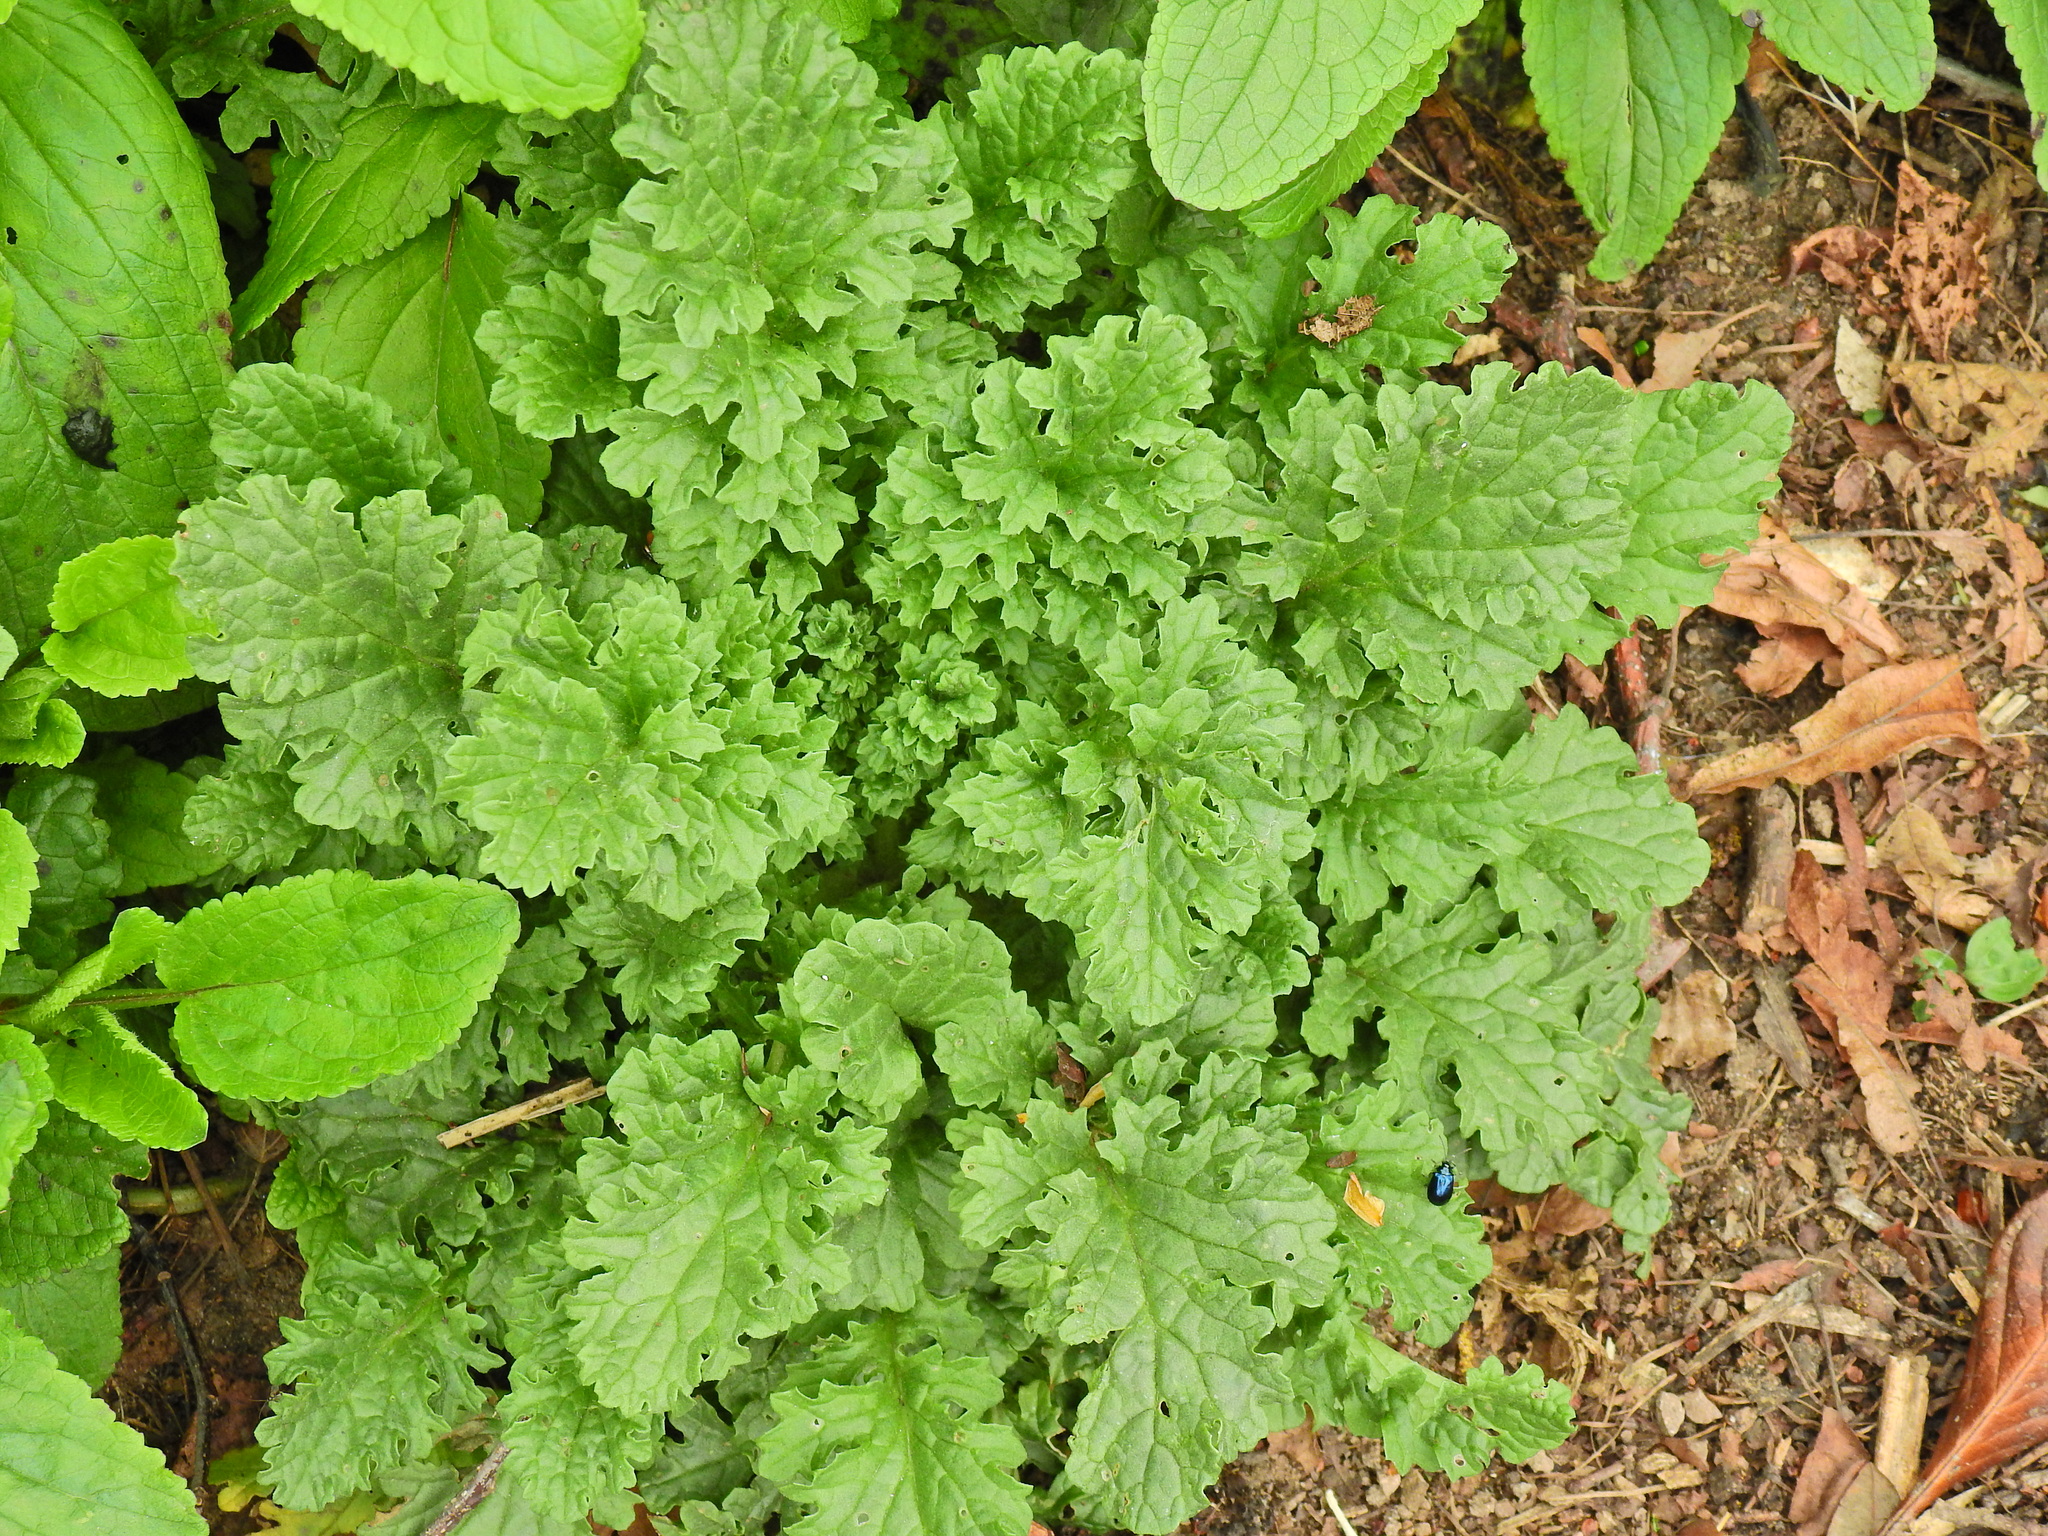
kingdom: Plantae
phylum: Tracheophyta
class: Magnoliopsida
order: Asterales
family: Asteraceae
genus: Jacobaea
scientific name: Jacobaea vulgaris
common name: Stinking willie
